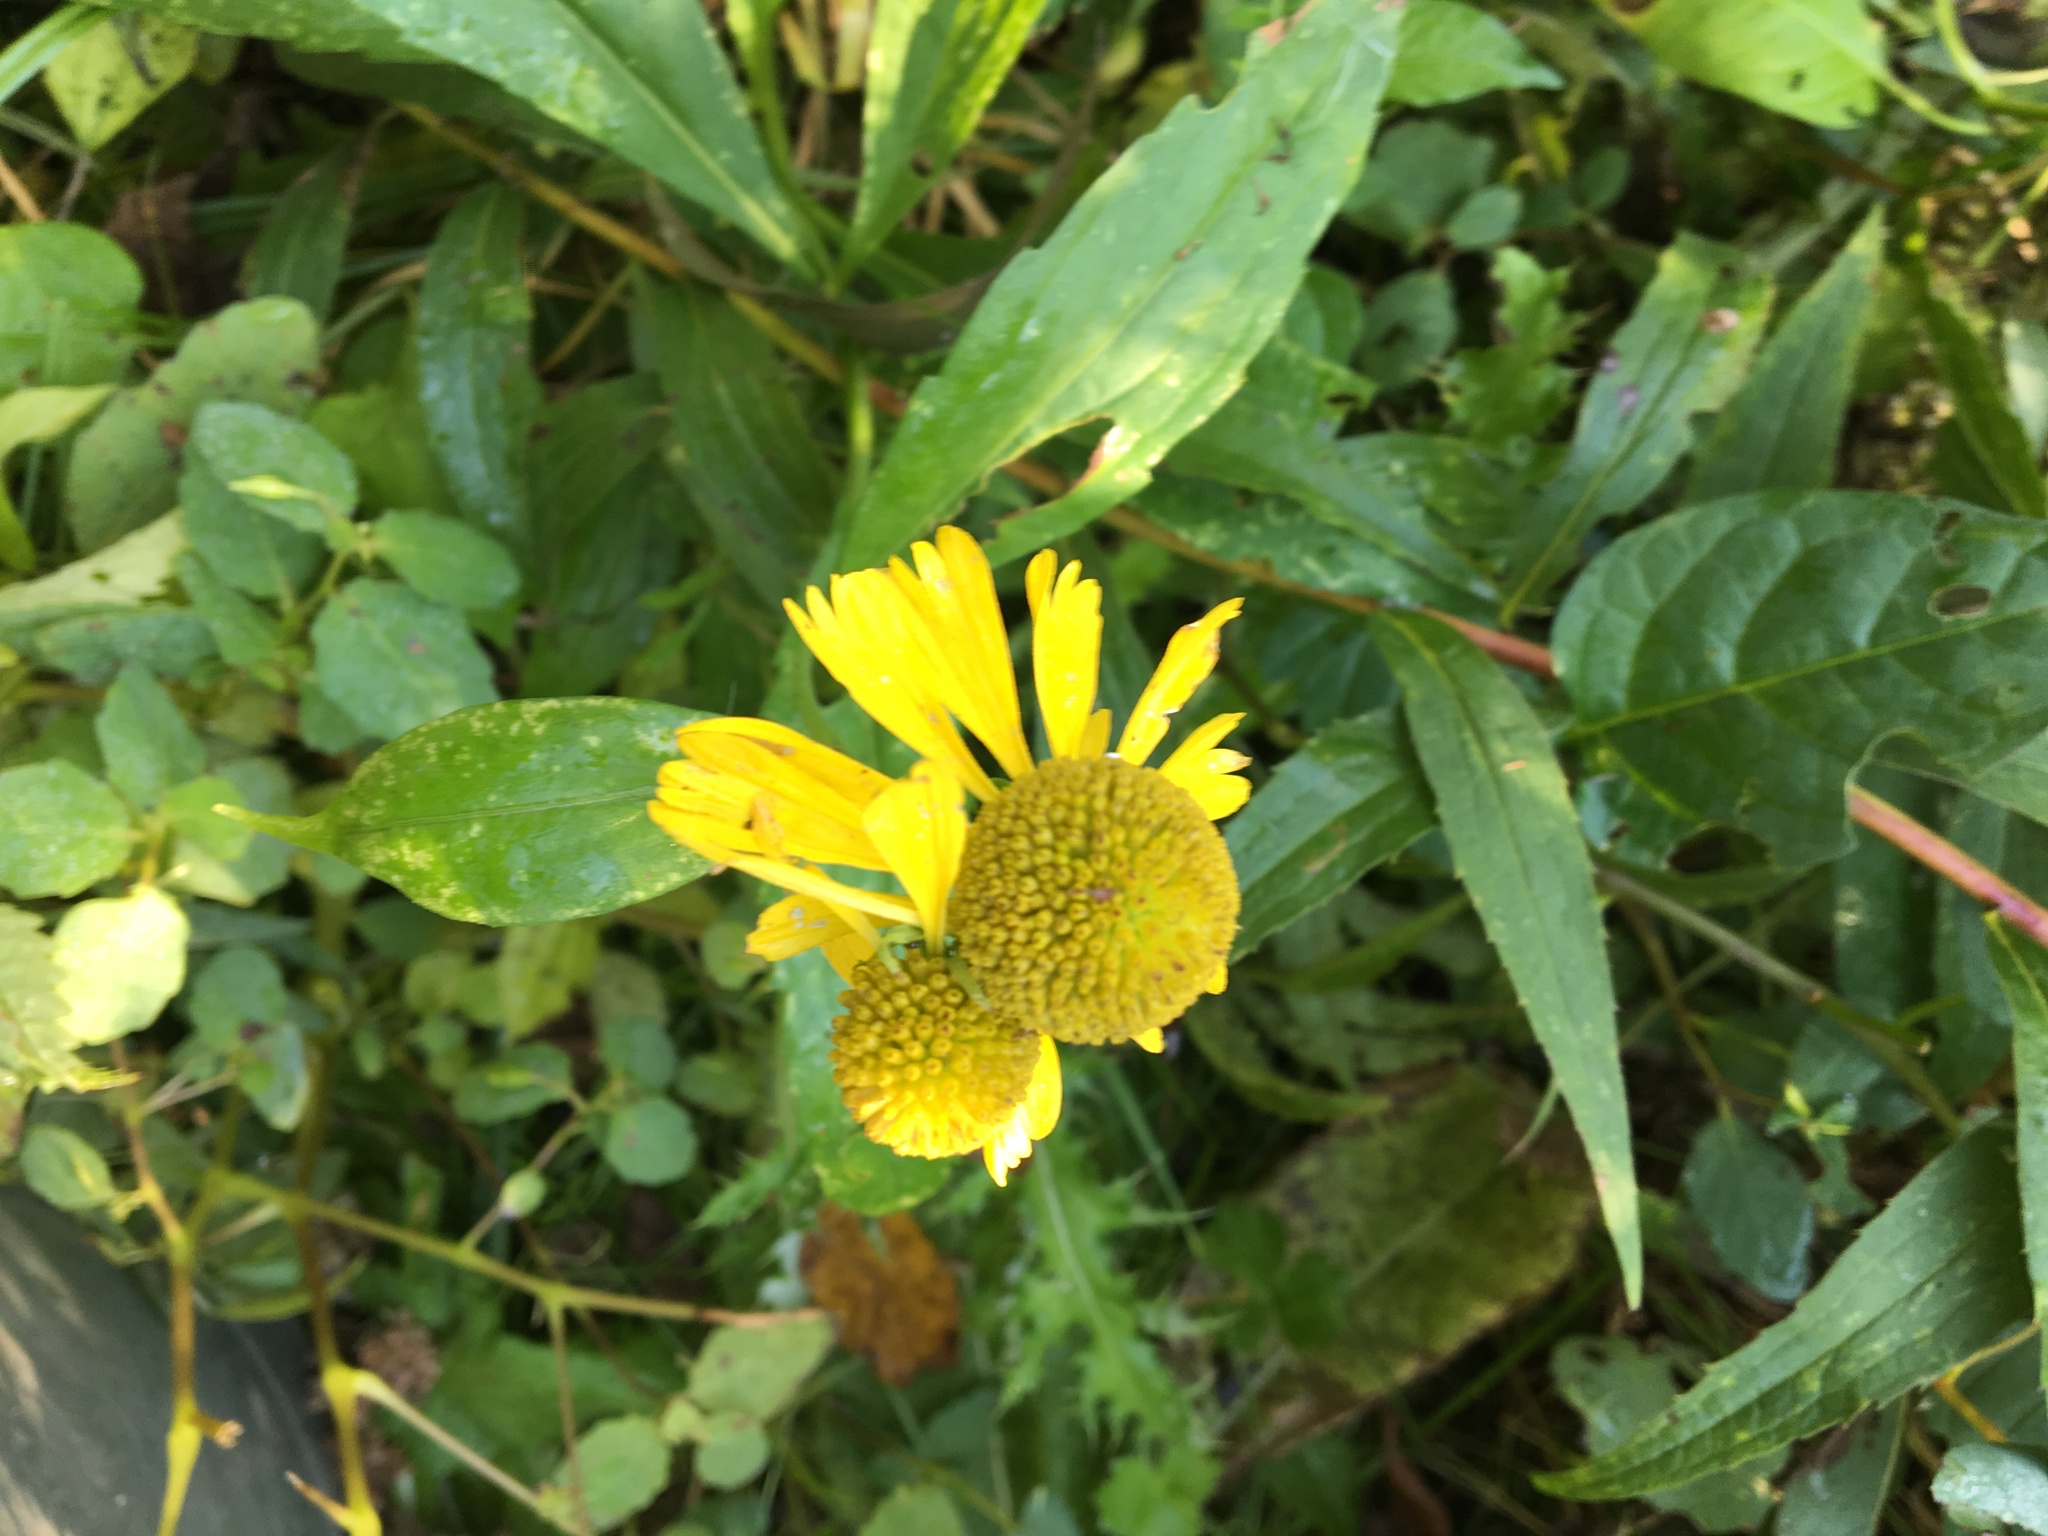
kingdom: Plantae
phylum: Tracheophyta
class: Magnoliopsida
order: Asterales
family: Asteraceae
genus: Helenium
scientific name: Helenium autumnale
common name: Sneezeweed
